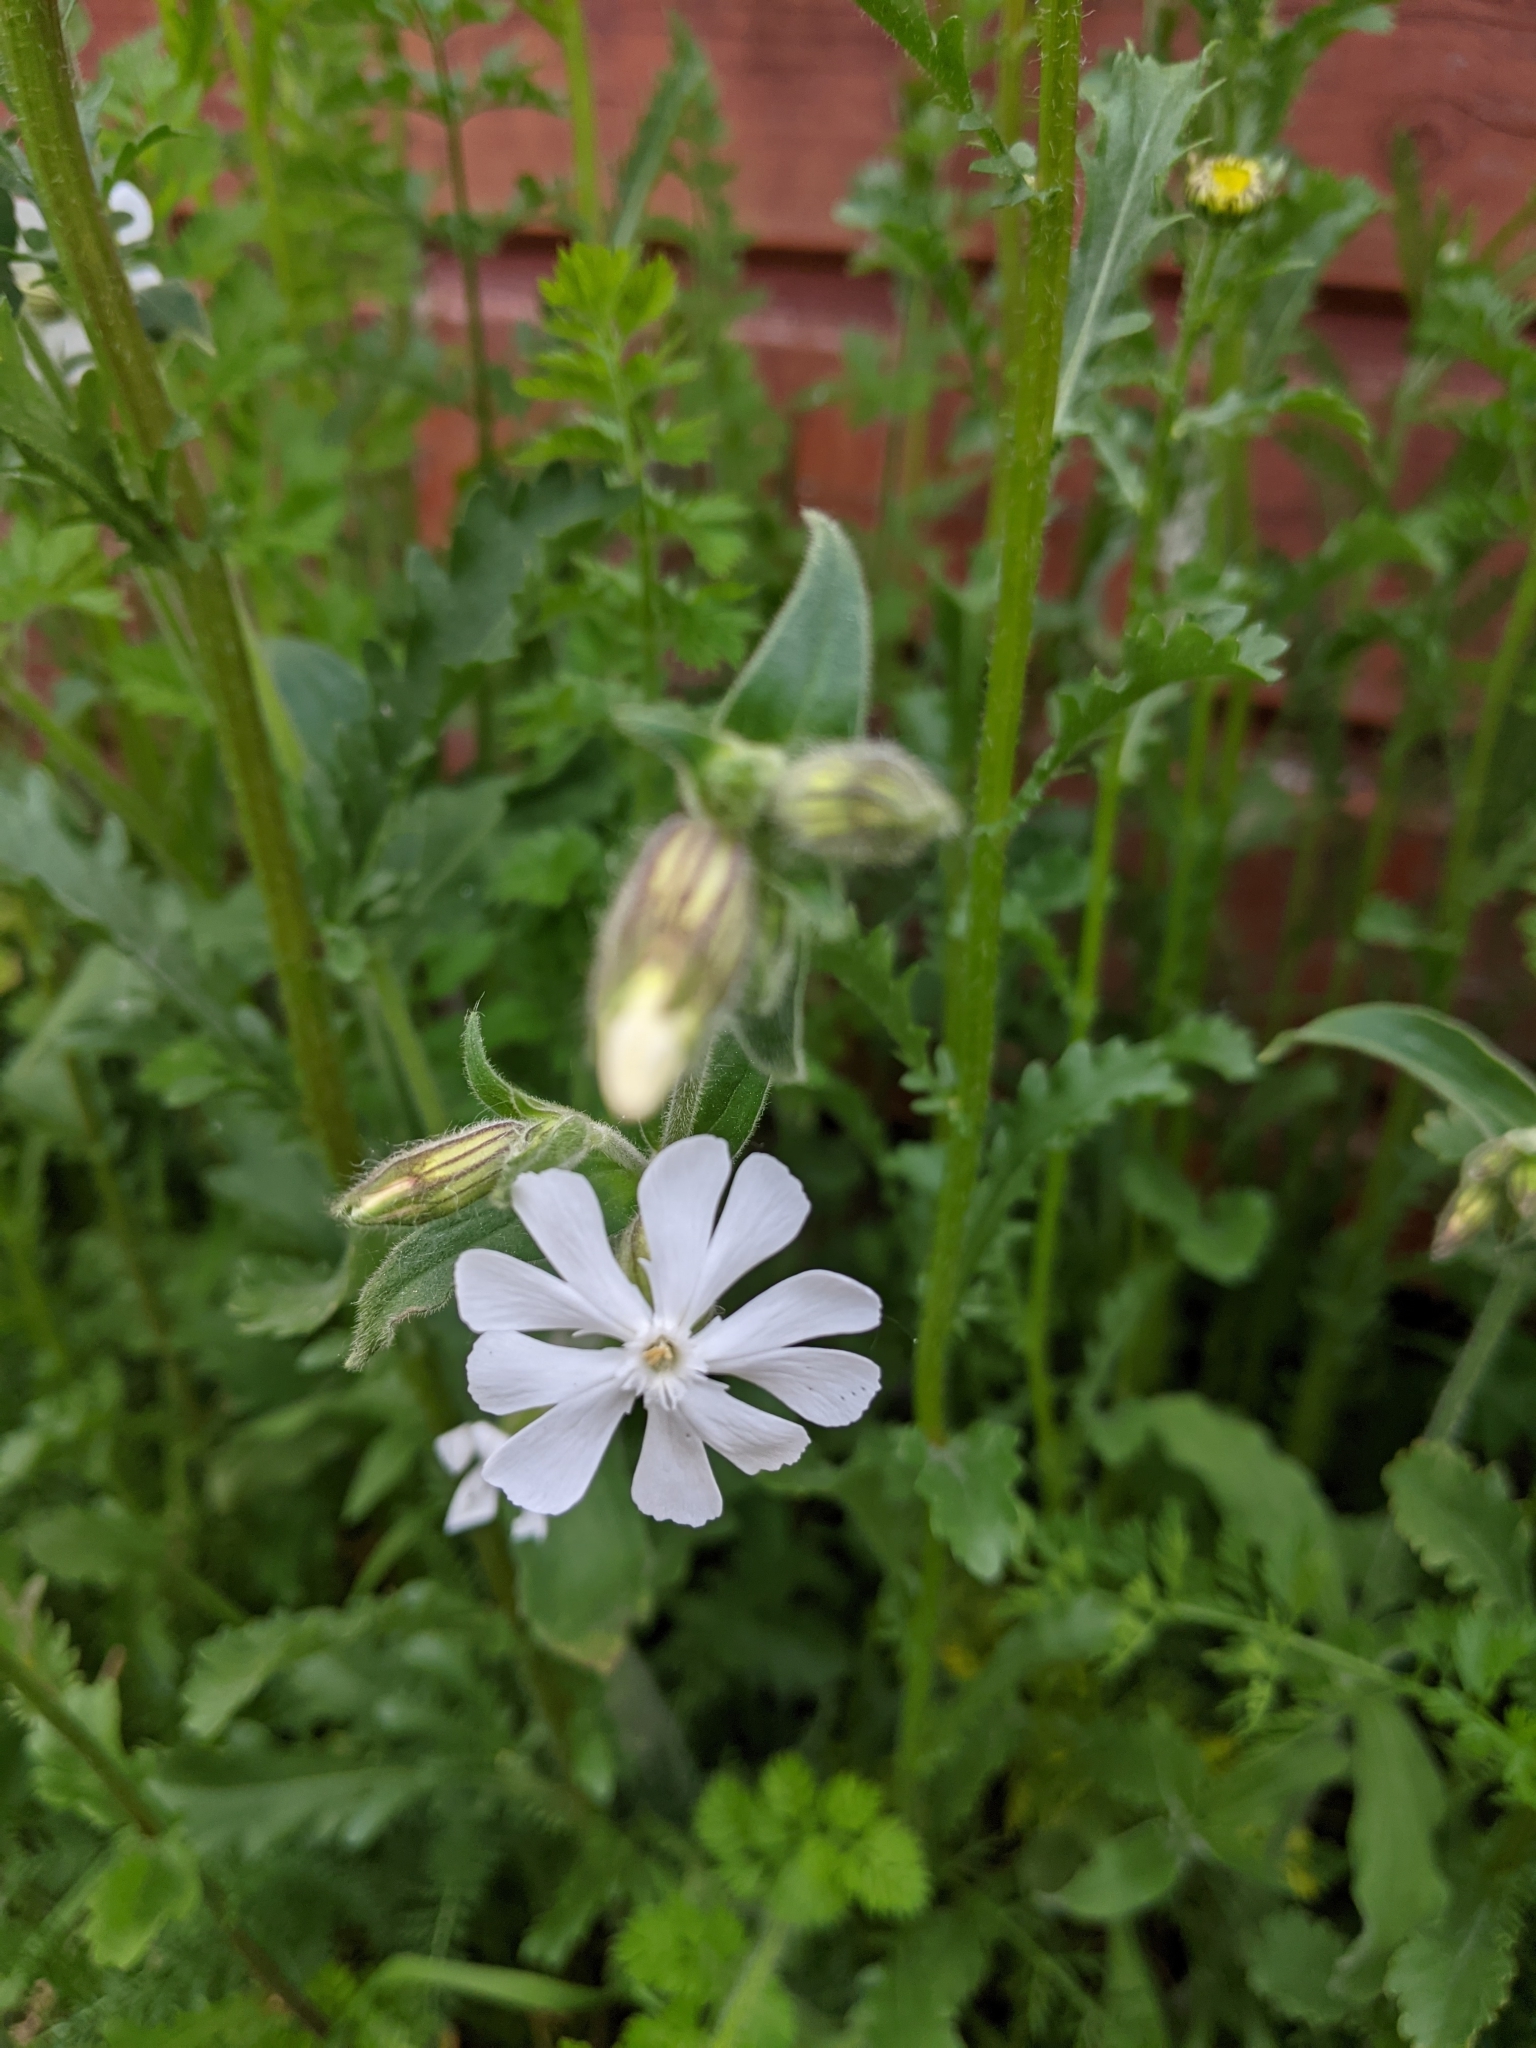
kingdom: Plantae
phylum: Tracheophyta
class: Magnoliopsida
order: Caryophyllales
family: Caryophyllaceae
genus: Silene
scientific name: Silene latifolia
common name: White campion
